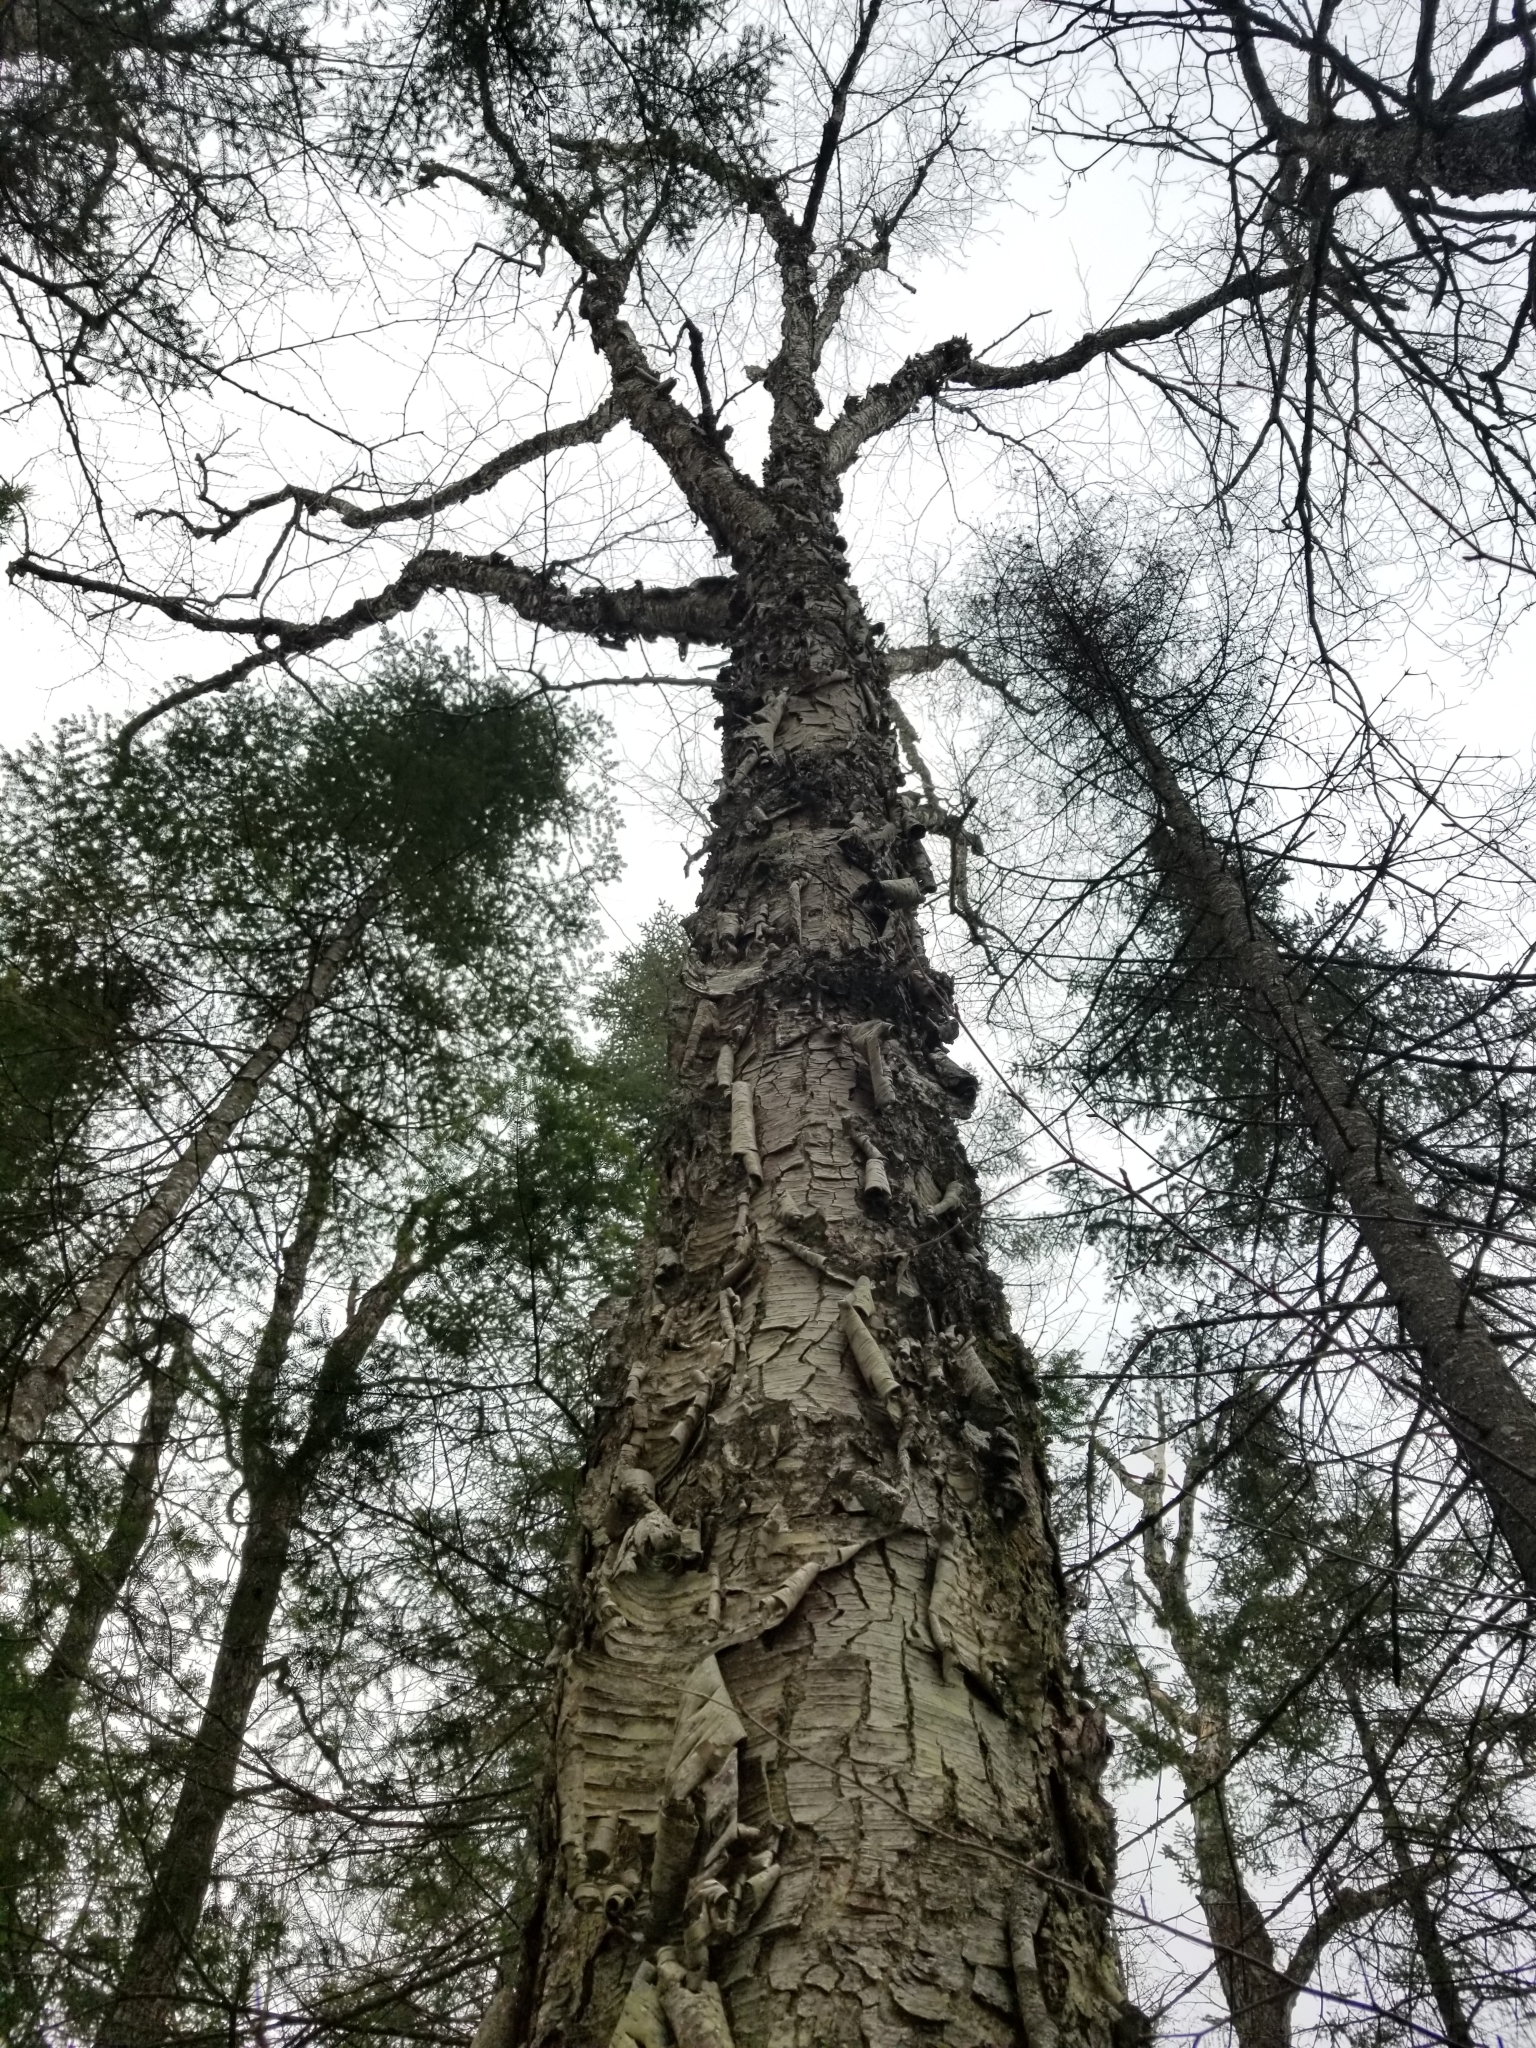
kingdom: Plantae
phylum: Tracheophyta
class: Magnoliopsida
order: Fagales
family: Betulaceae
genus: Betula
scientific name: Betula alleghaniensis
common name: Yellow birch
